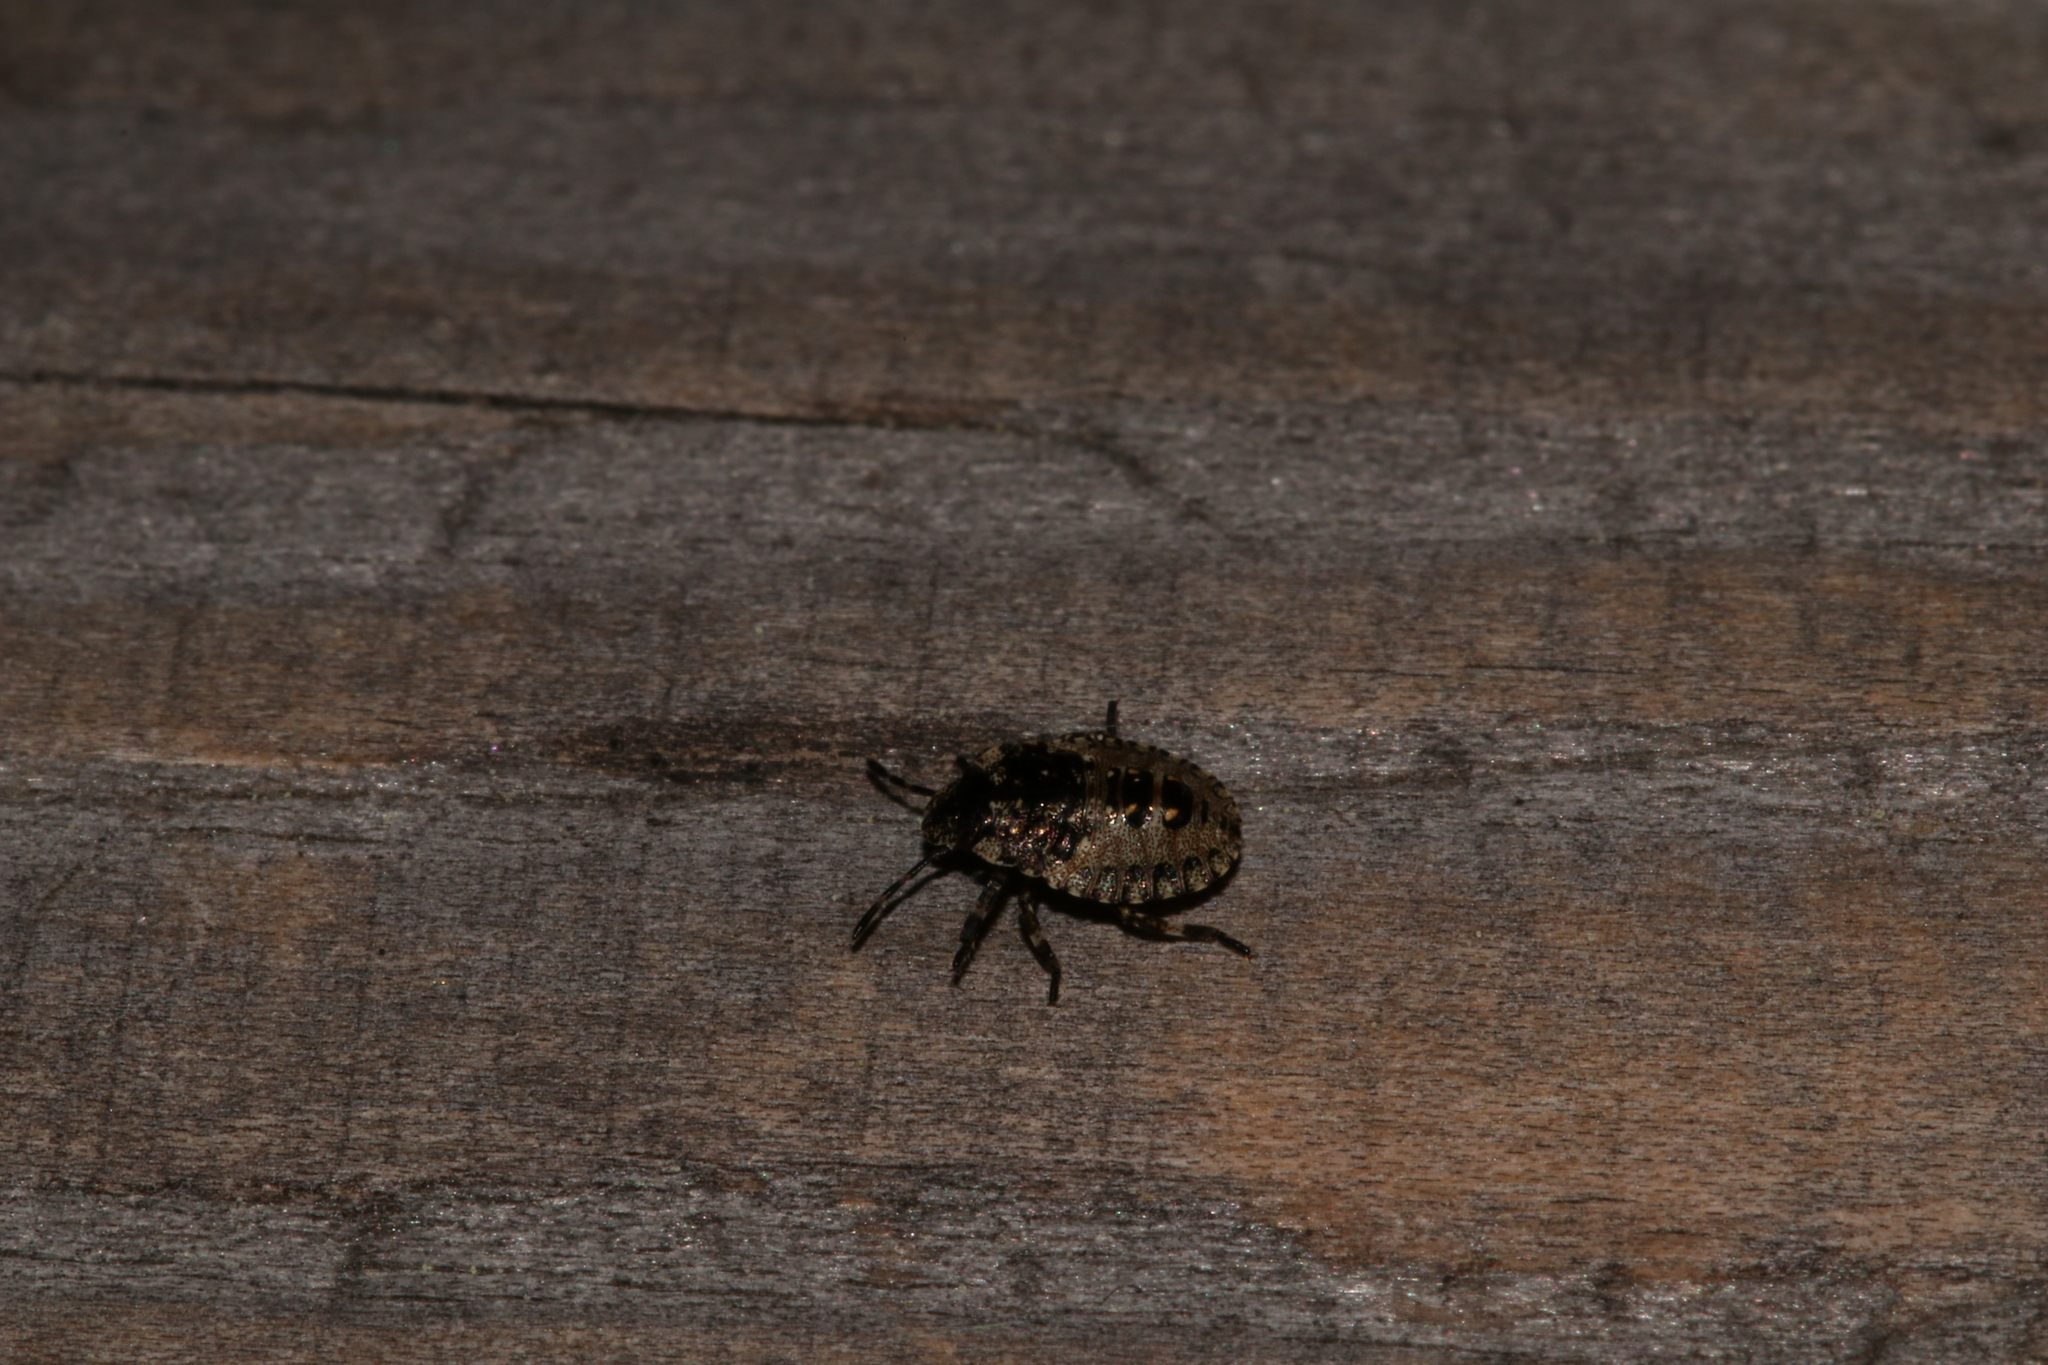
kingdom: Animalia
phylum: Arthropoda
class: Insecta
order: Hemiptera
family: Pentatomidae
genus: Pentatoma
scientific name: Pentatoma rufipes
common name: Forest bug
